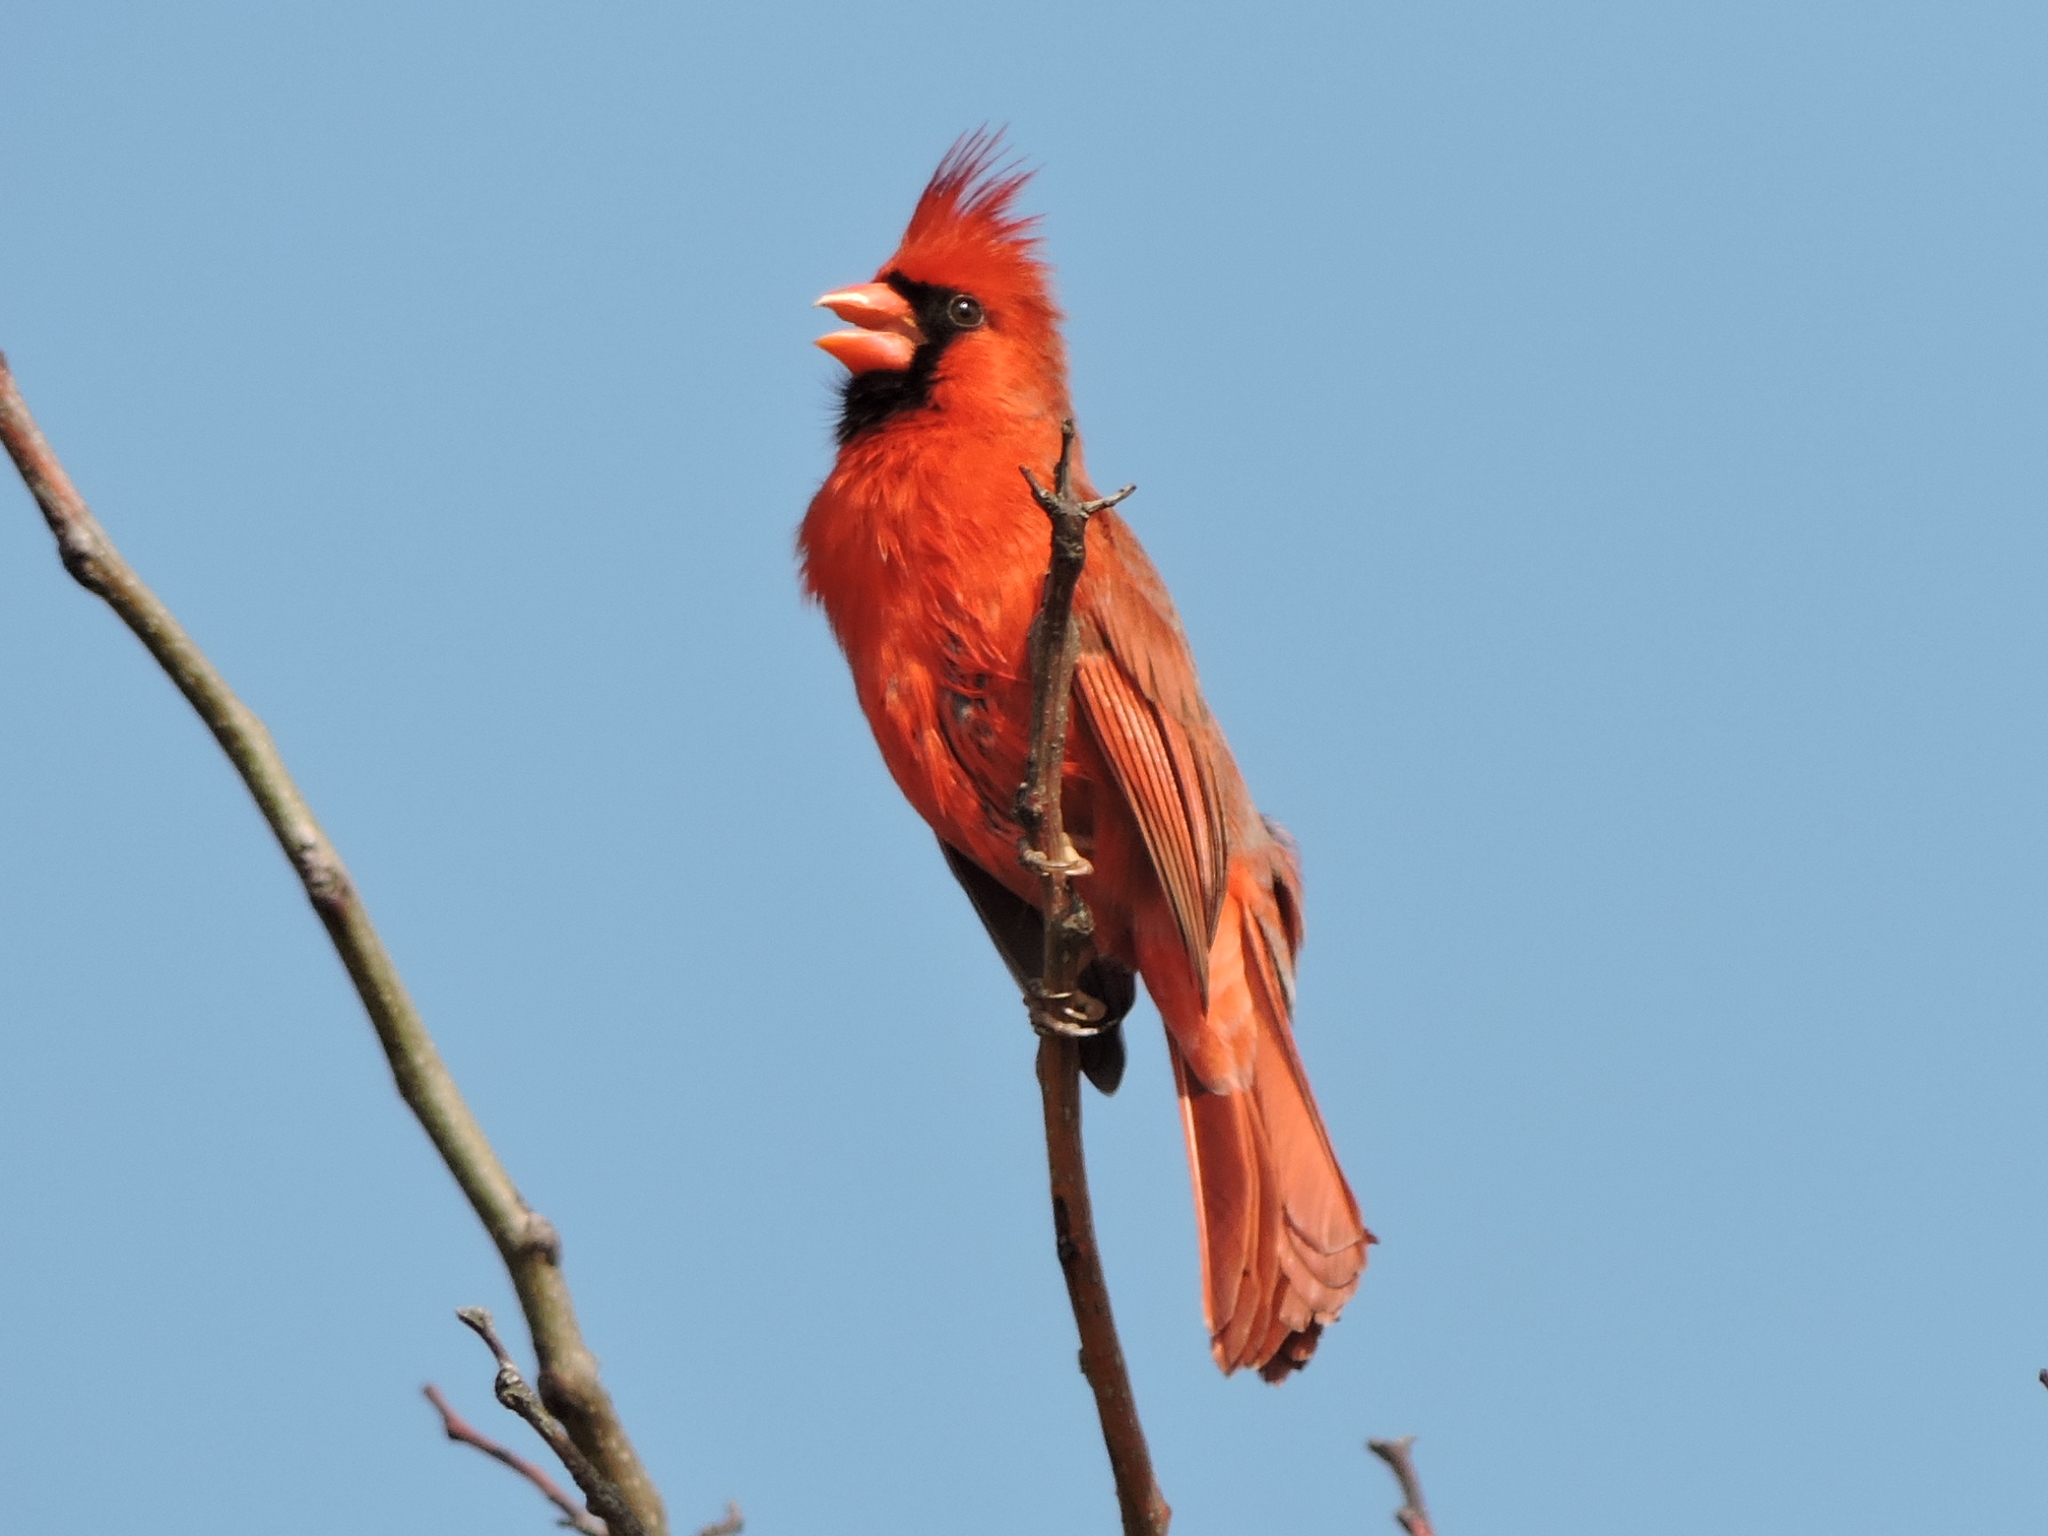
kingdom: Animalia
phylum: Chordata
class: Aves
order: Passeriformes
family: Cardinalidae
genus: Cardinalis
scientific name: Cardinalis cardinalis
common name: Northern cardinal
